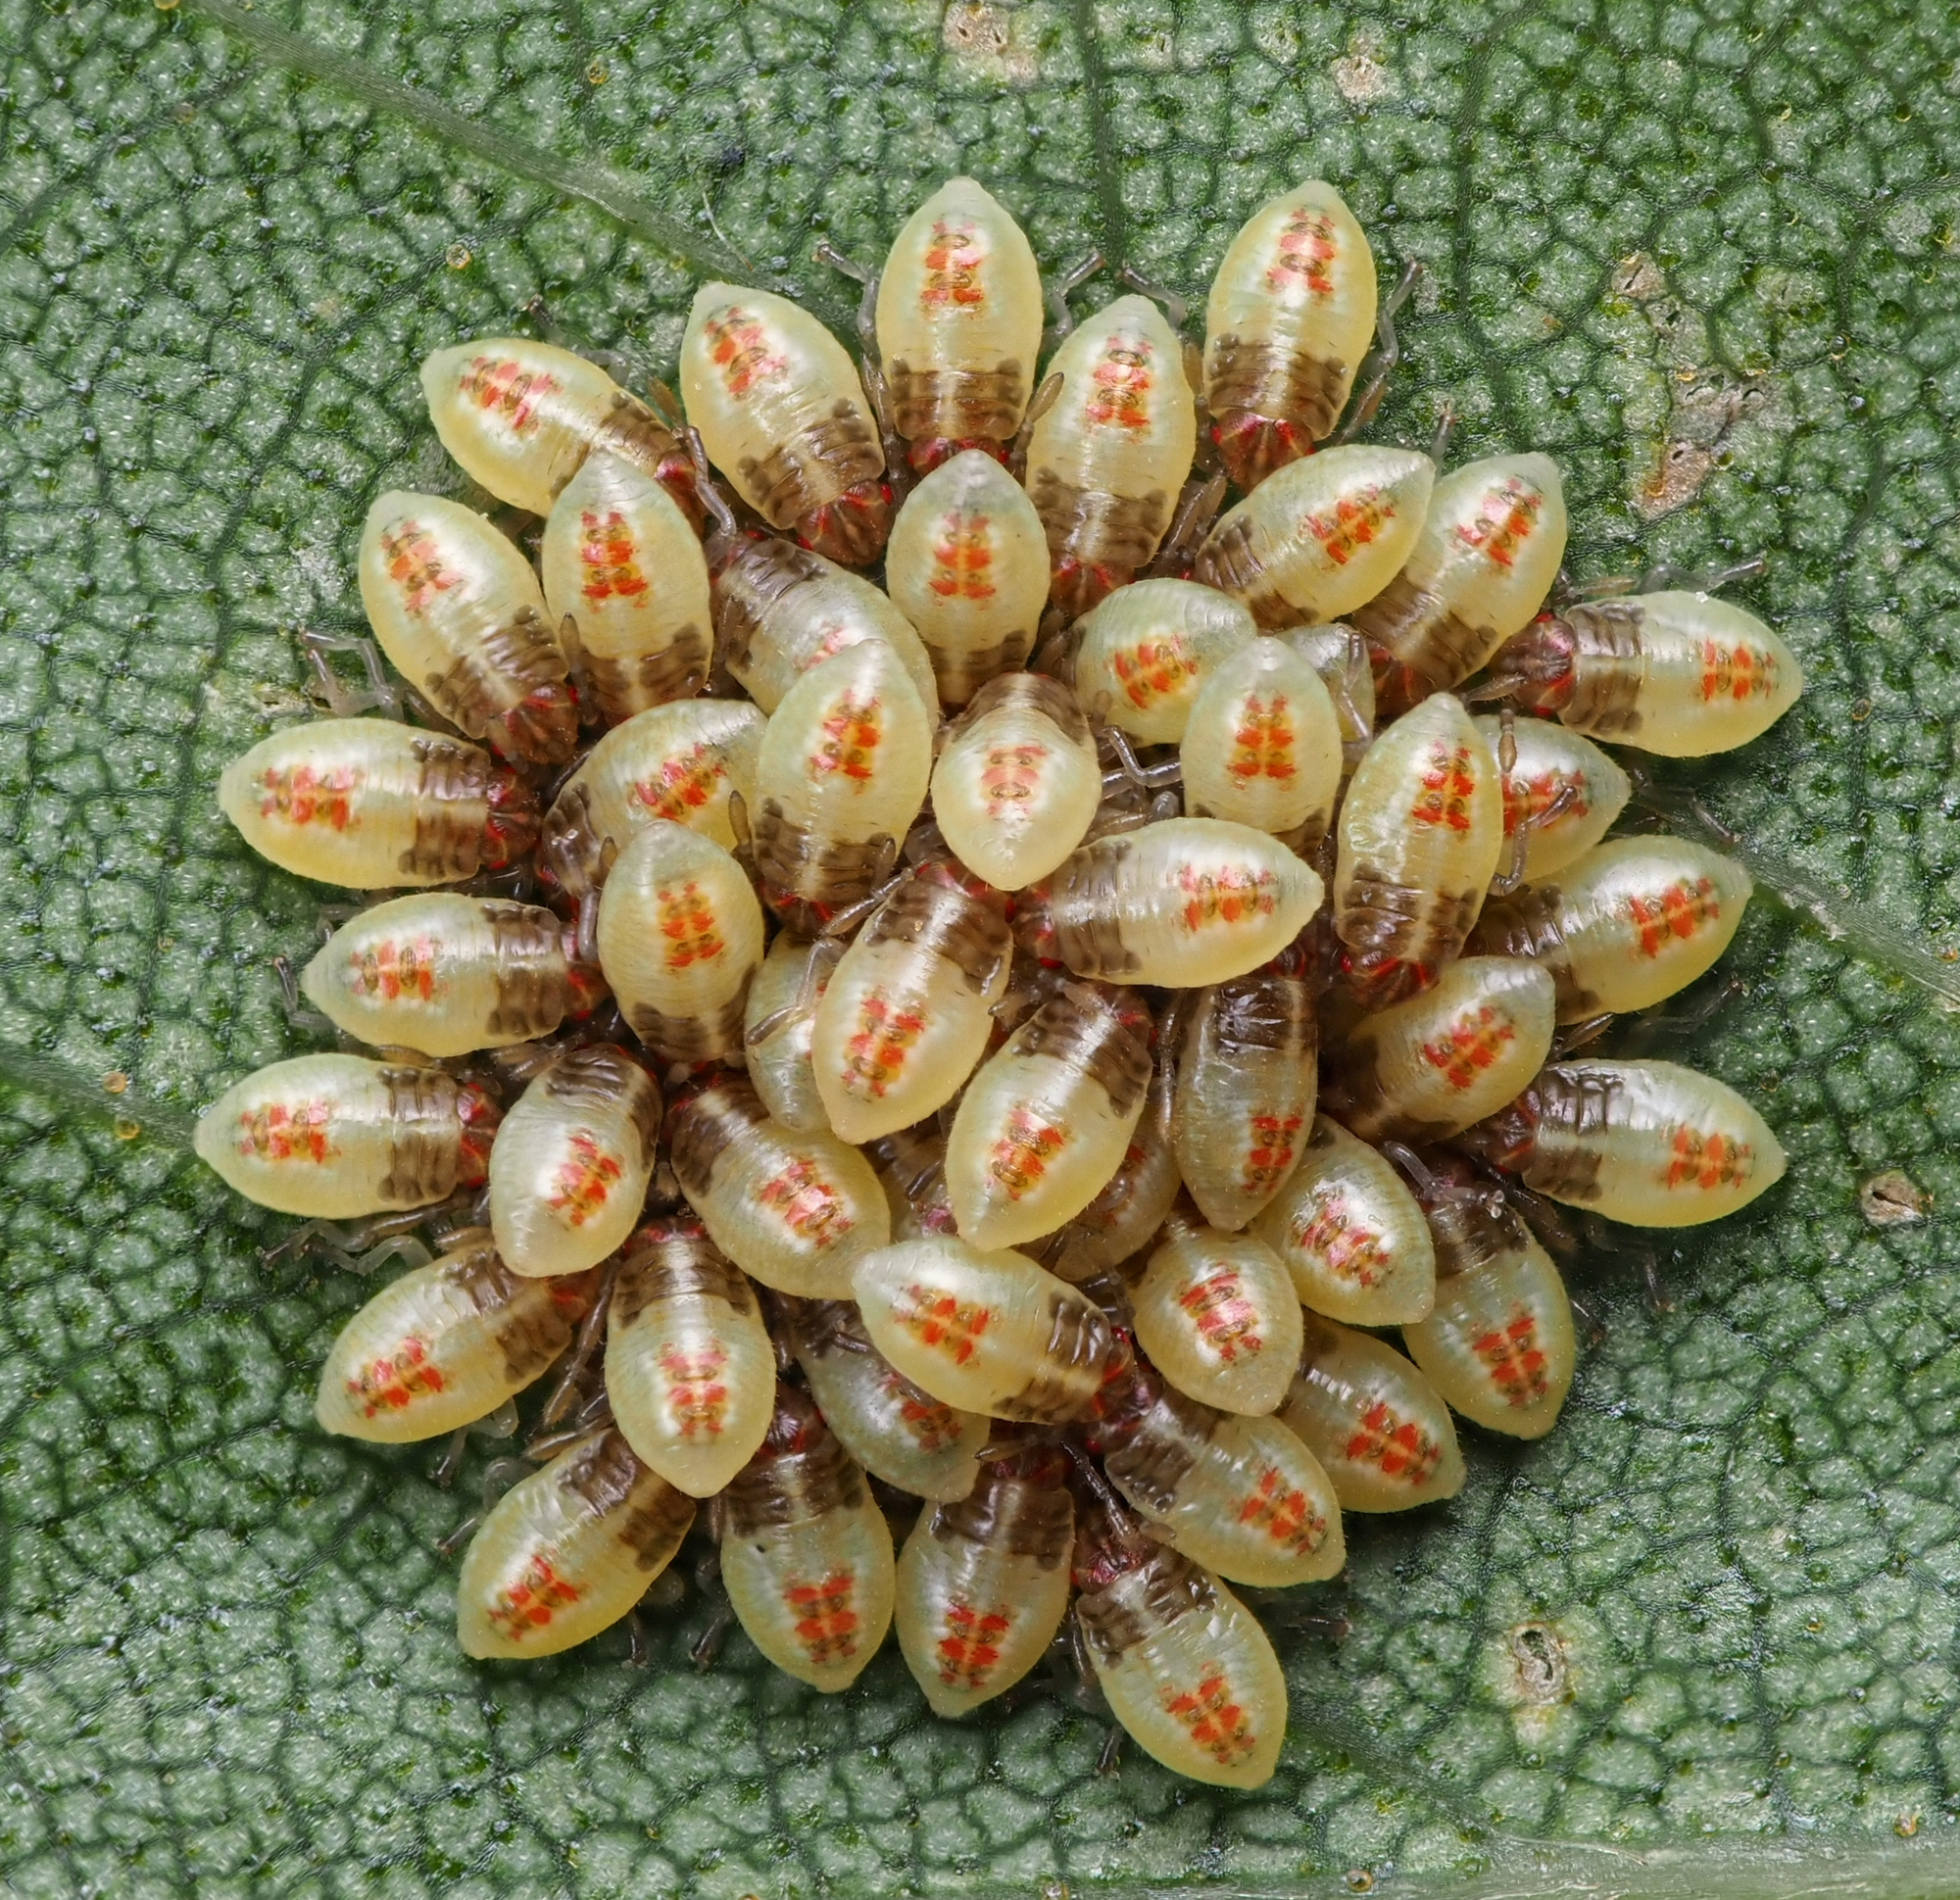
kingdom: Animalia
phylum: Arthropoda
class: Insecta
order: Hemiptera
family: Acanthosomatidae
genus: Elasmucha
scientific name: Elasmucha grisea
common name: Parent bug
